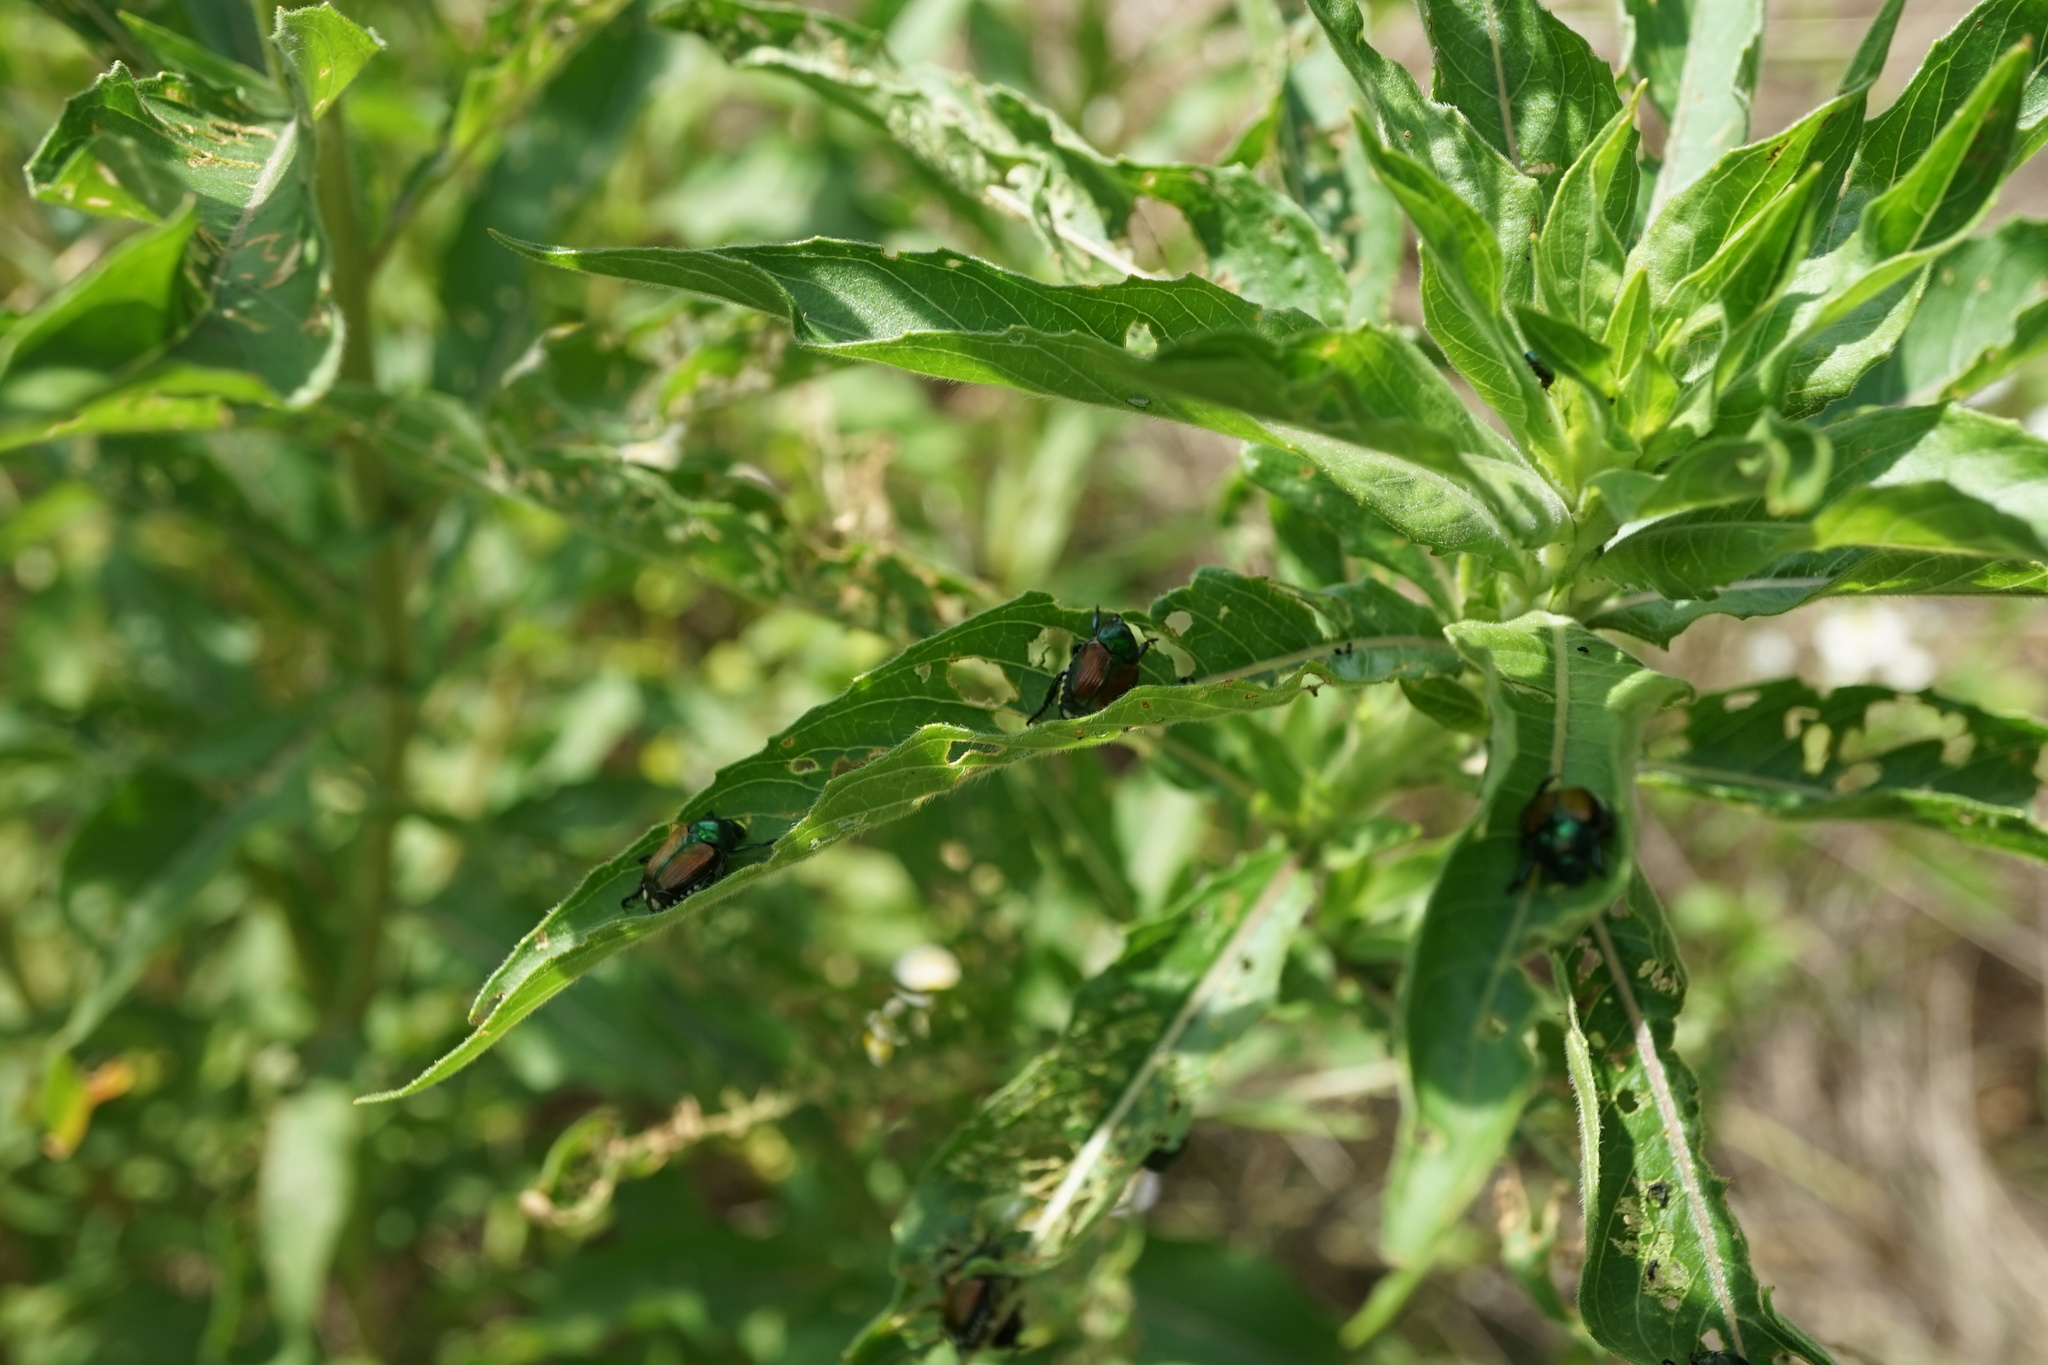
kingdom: Animalia
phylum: Arthropoda
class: Insecta
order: Coleoptera
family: Scarabaeidae
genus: Popillia
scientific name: Popillia japonica
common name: Japanese beetle
